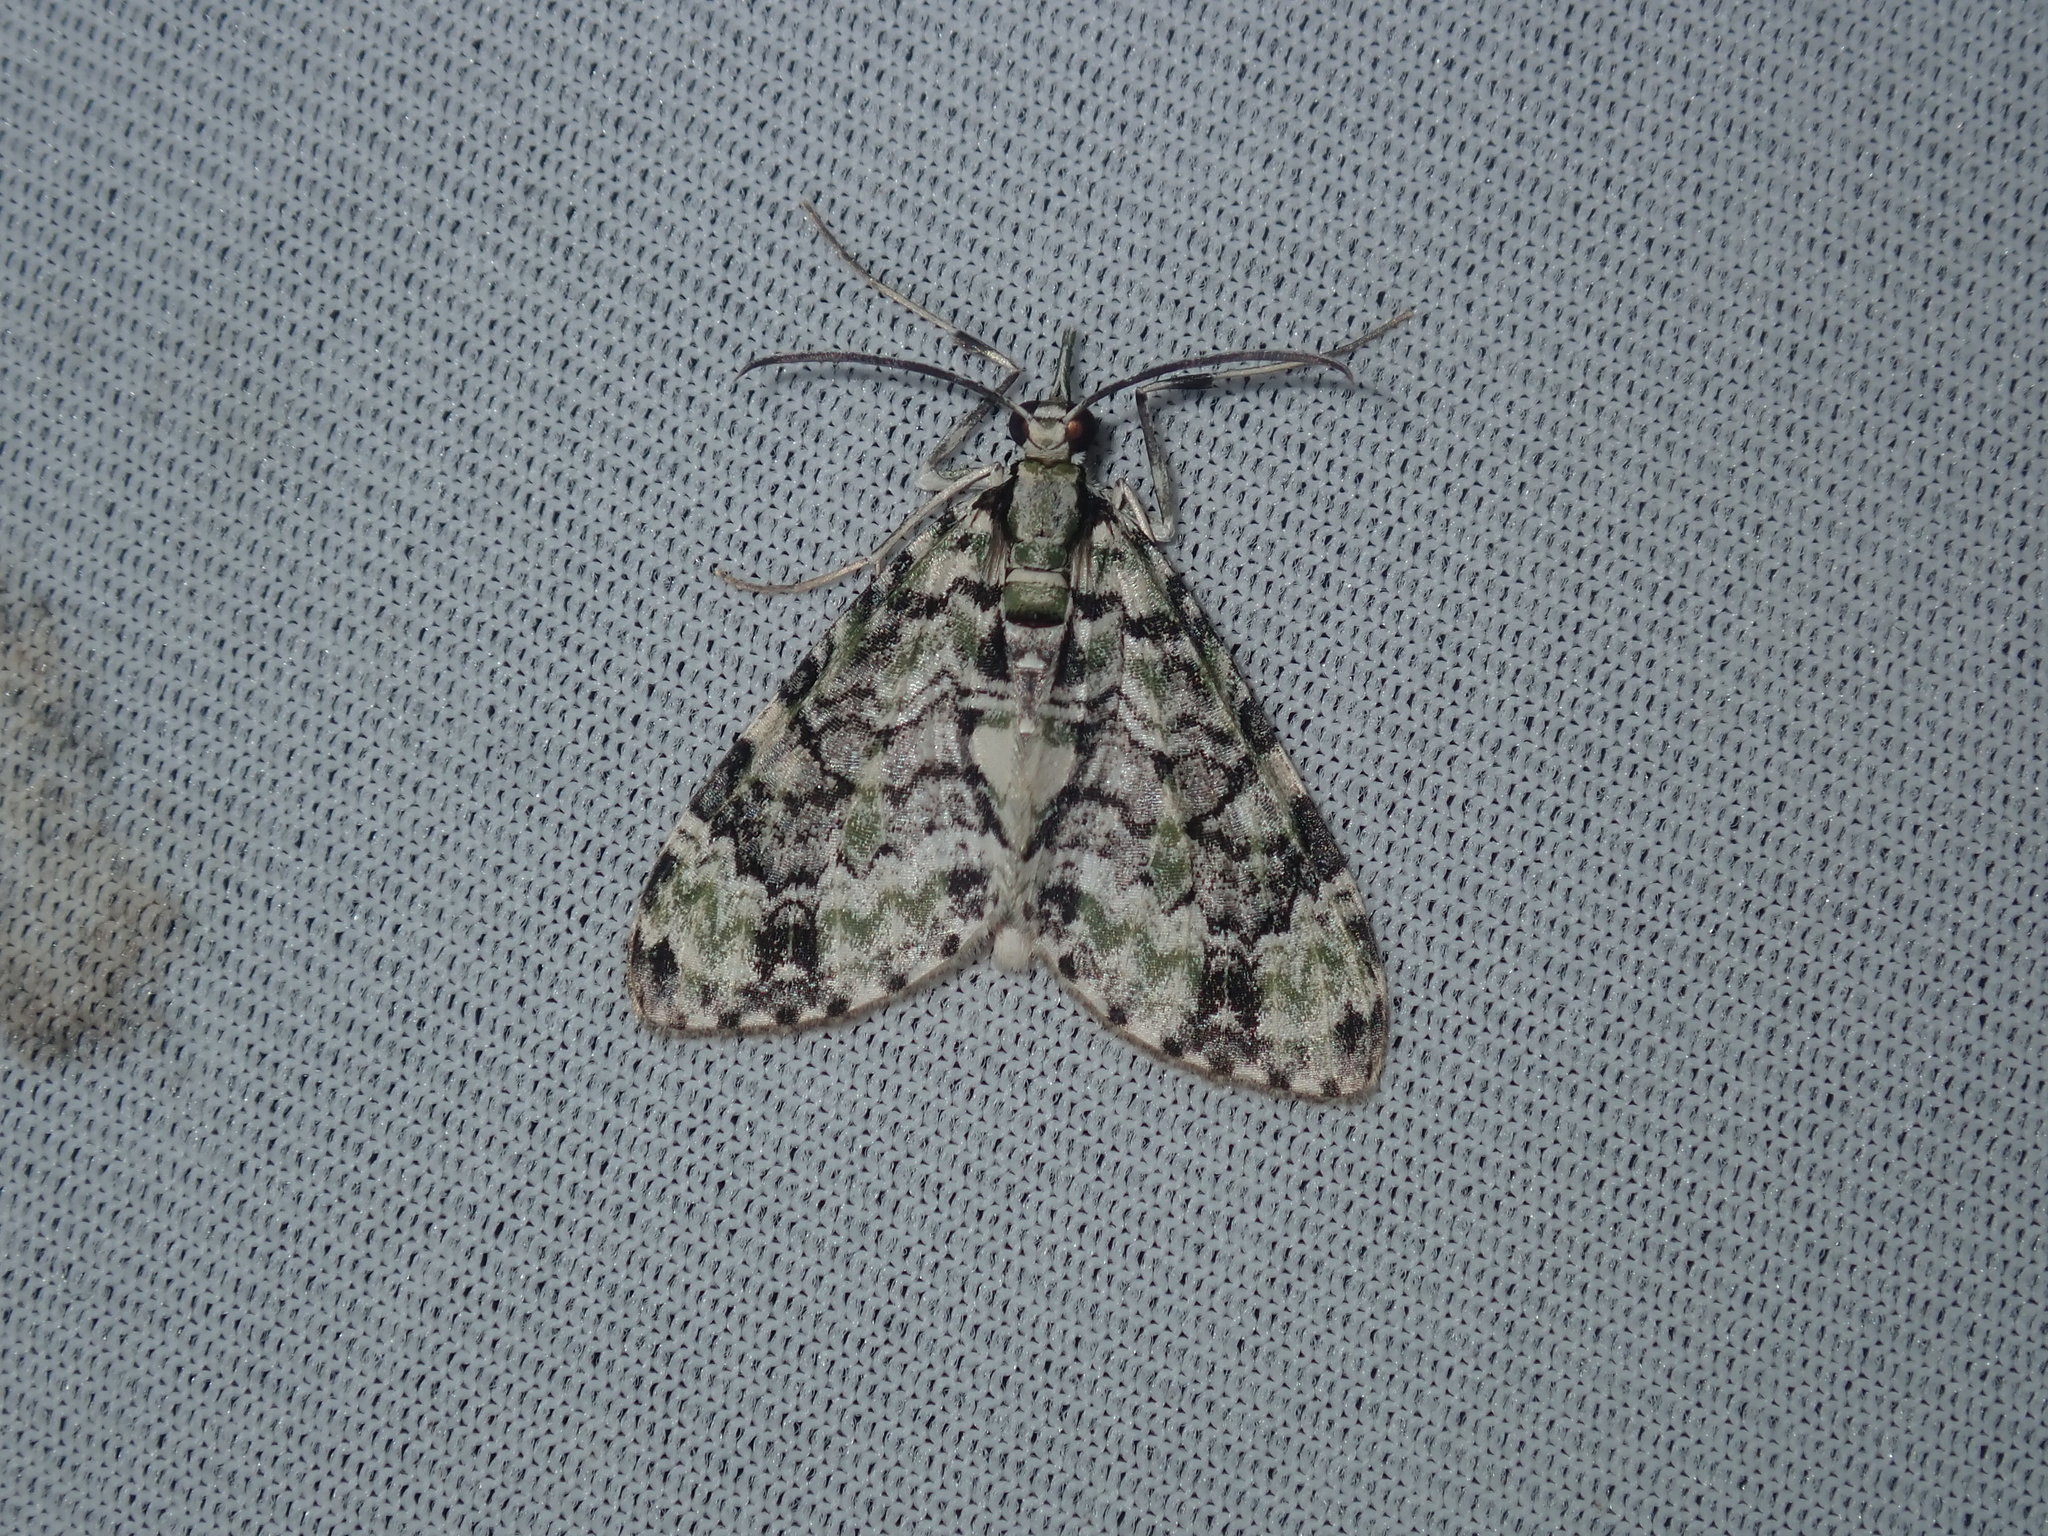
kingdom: Animalia
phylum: Arthropoda
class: Insecta
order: Lepidoptera
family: Geometridae
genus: Sauris
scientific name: Sauris lichenias
